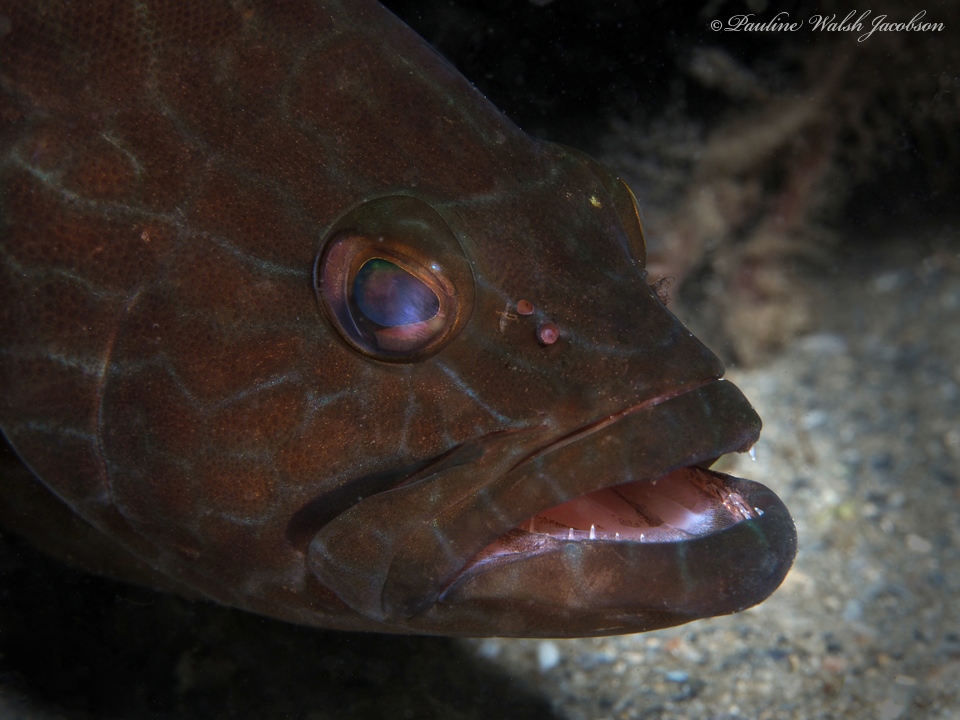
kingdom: Animalia
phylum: Chordata
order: Perciformes
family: Serranidae
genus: Mycteroperca
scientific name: Mycteroperca bonaci
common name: Black grouper
